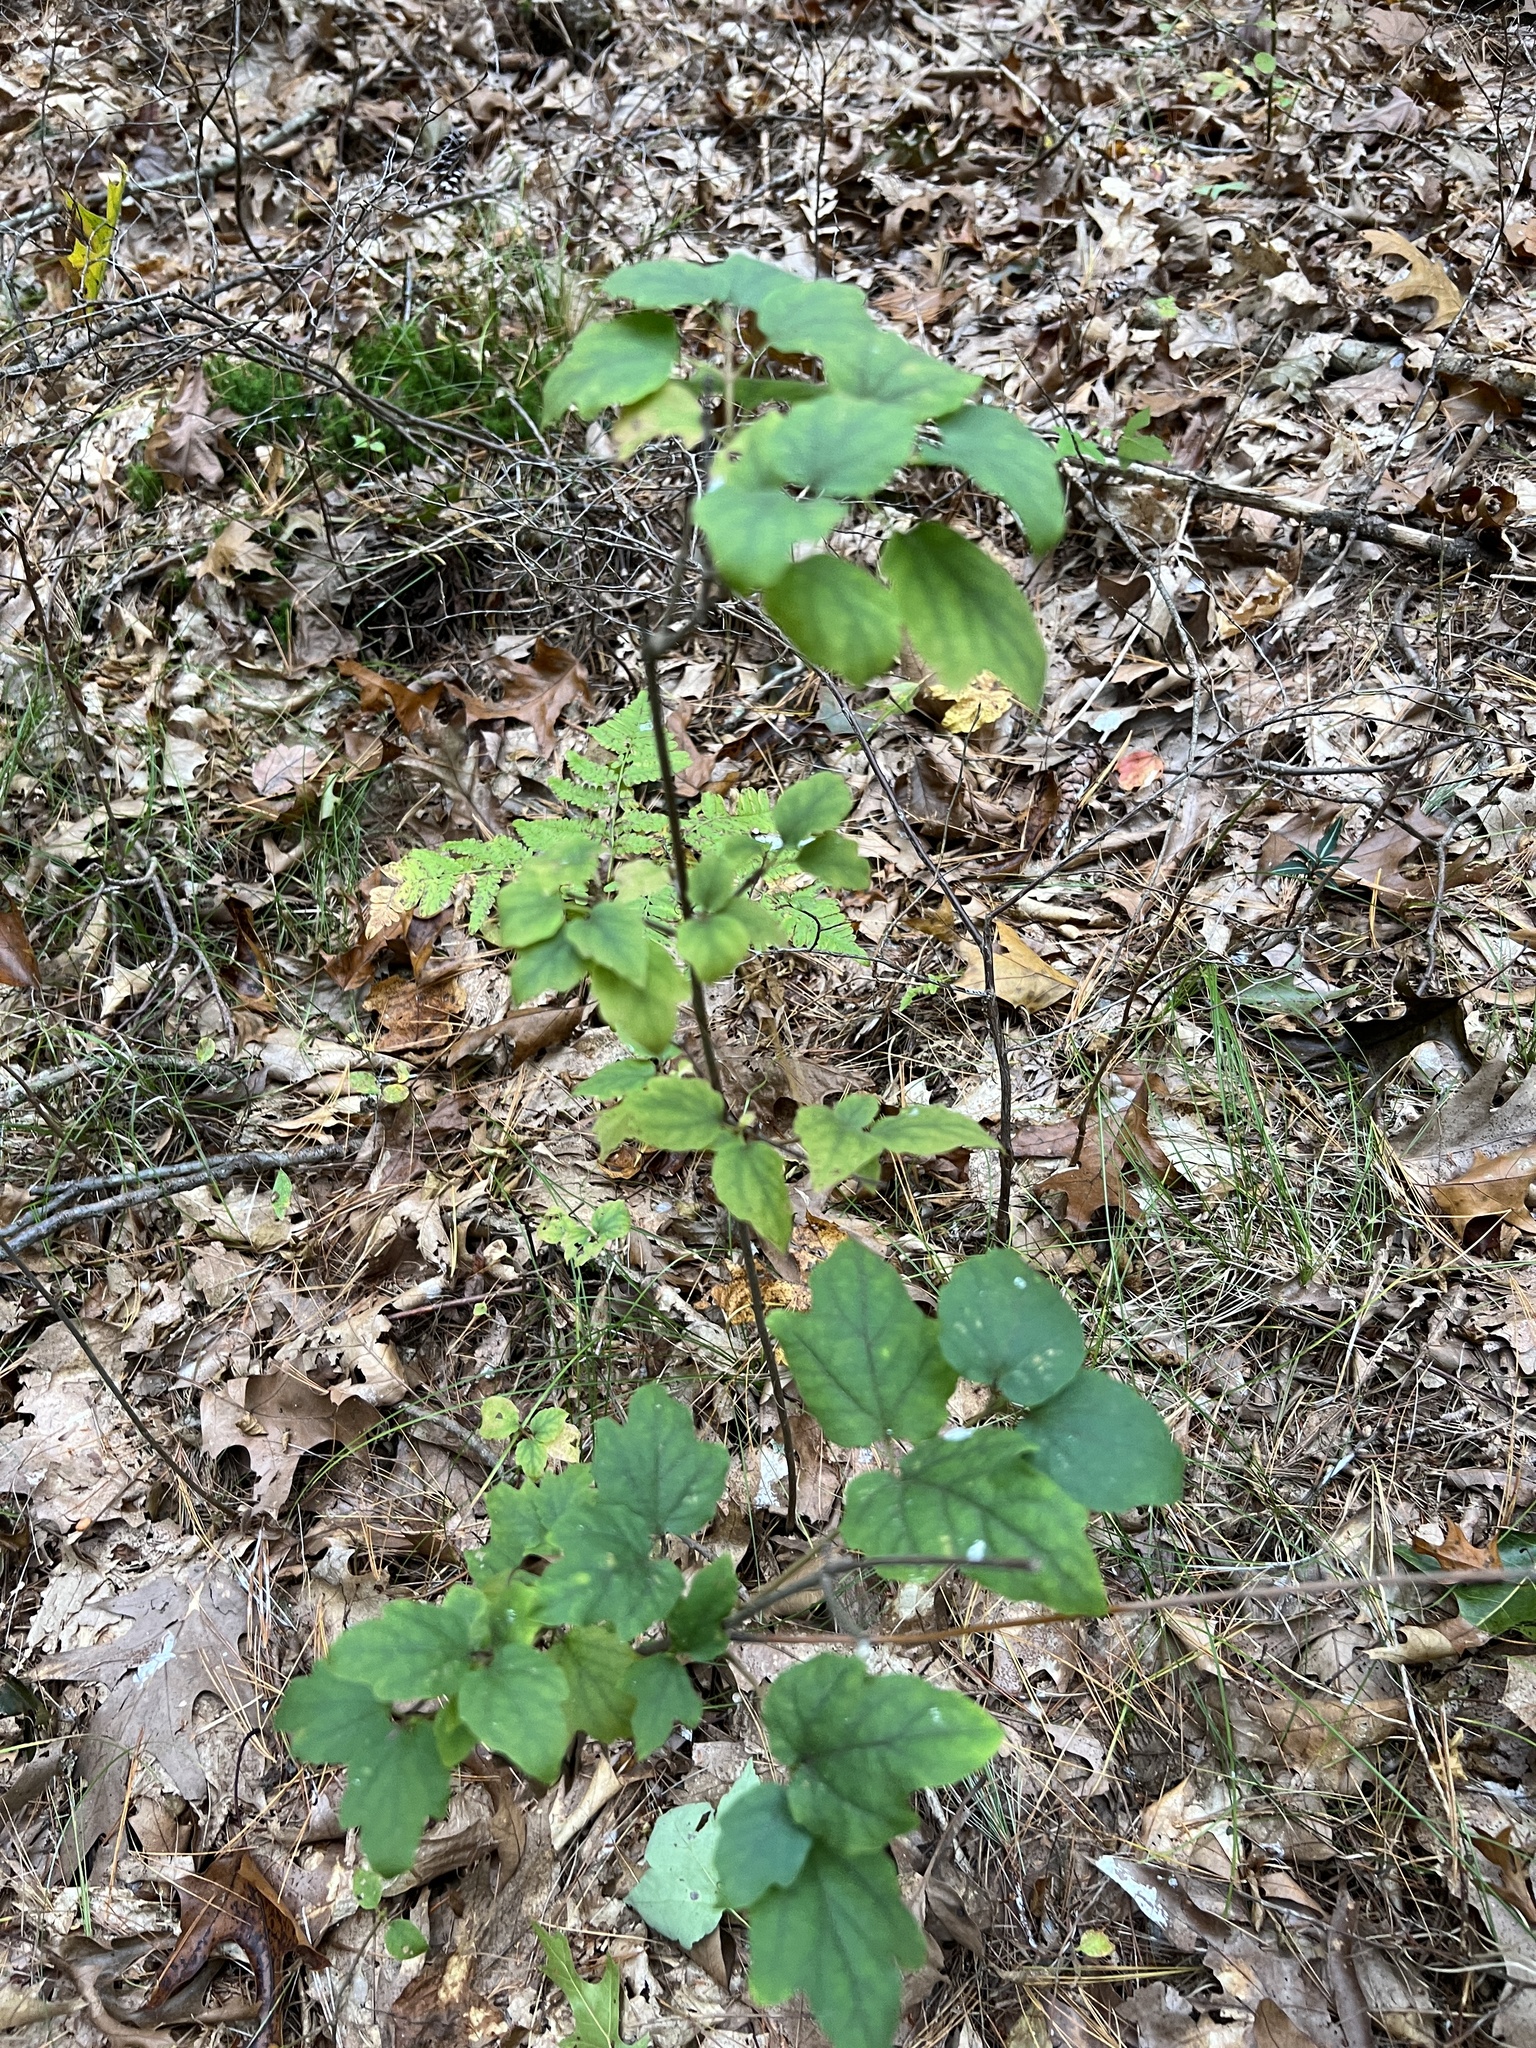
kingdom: Plantae
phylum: Tracheophyta
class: Magnoliopsida
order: Dipsacales
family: Viburnaceae
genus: Viburnum
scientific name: Viburnum acerifolium
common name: Dockmackie
